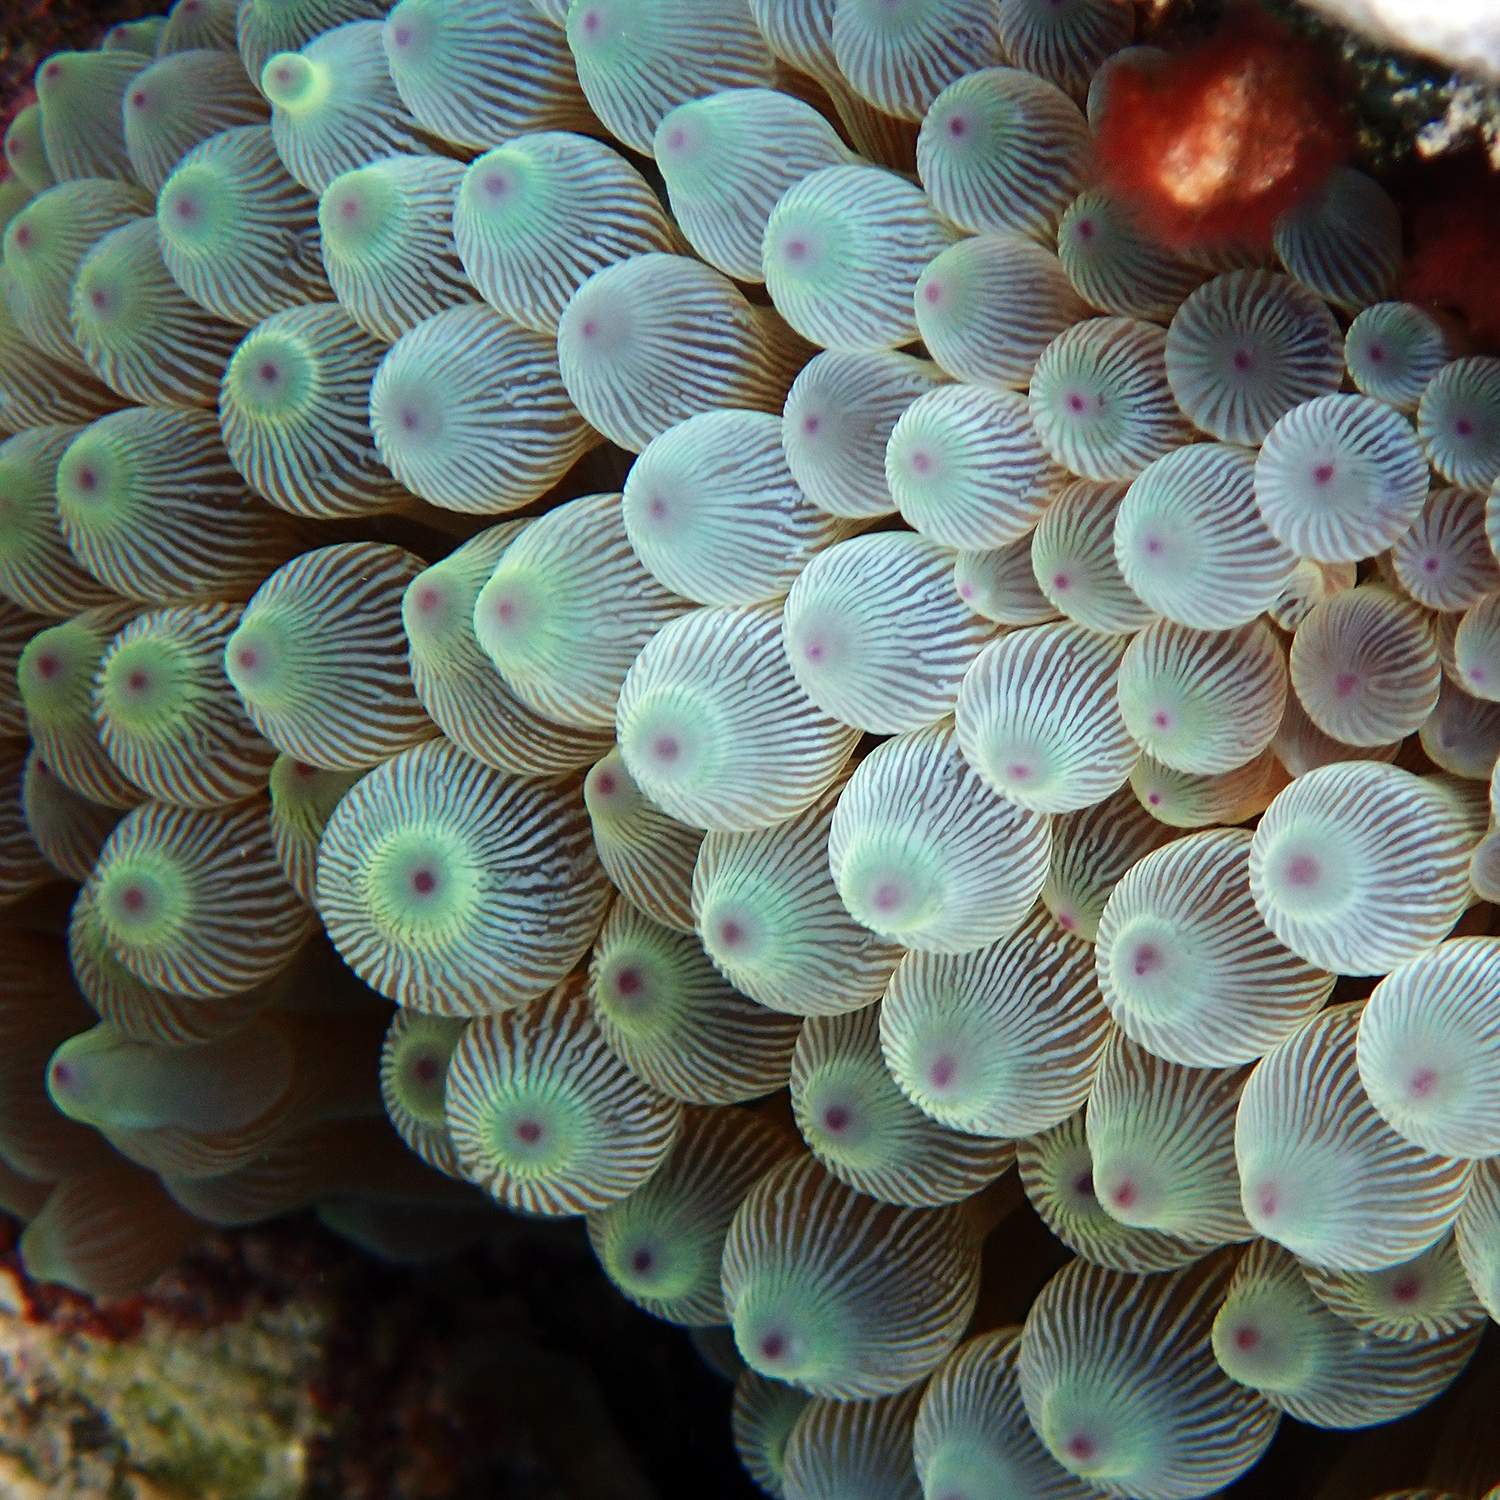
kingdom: Animalia
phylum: Cnidaria
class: Anthozoa
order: Actiniaria
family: Actiniidae
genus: Entacmaea
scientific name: Entacmaea quadricolor
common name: Bulb tentacle sea anemone
